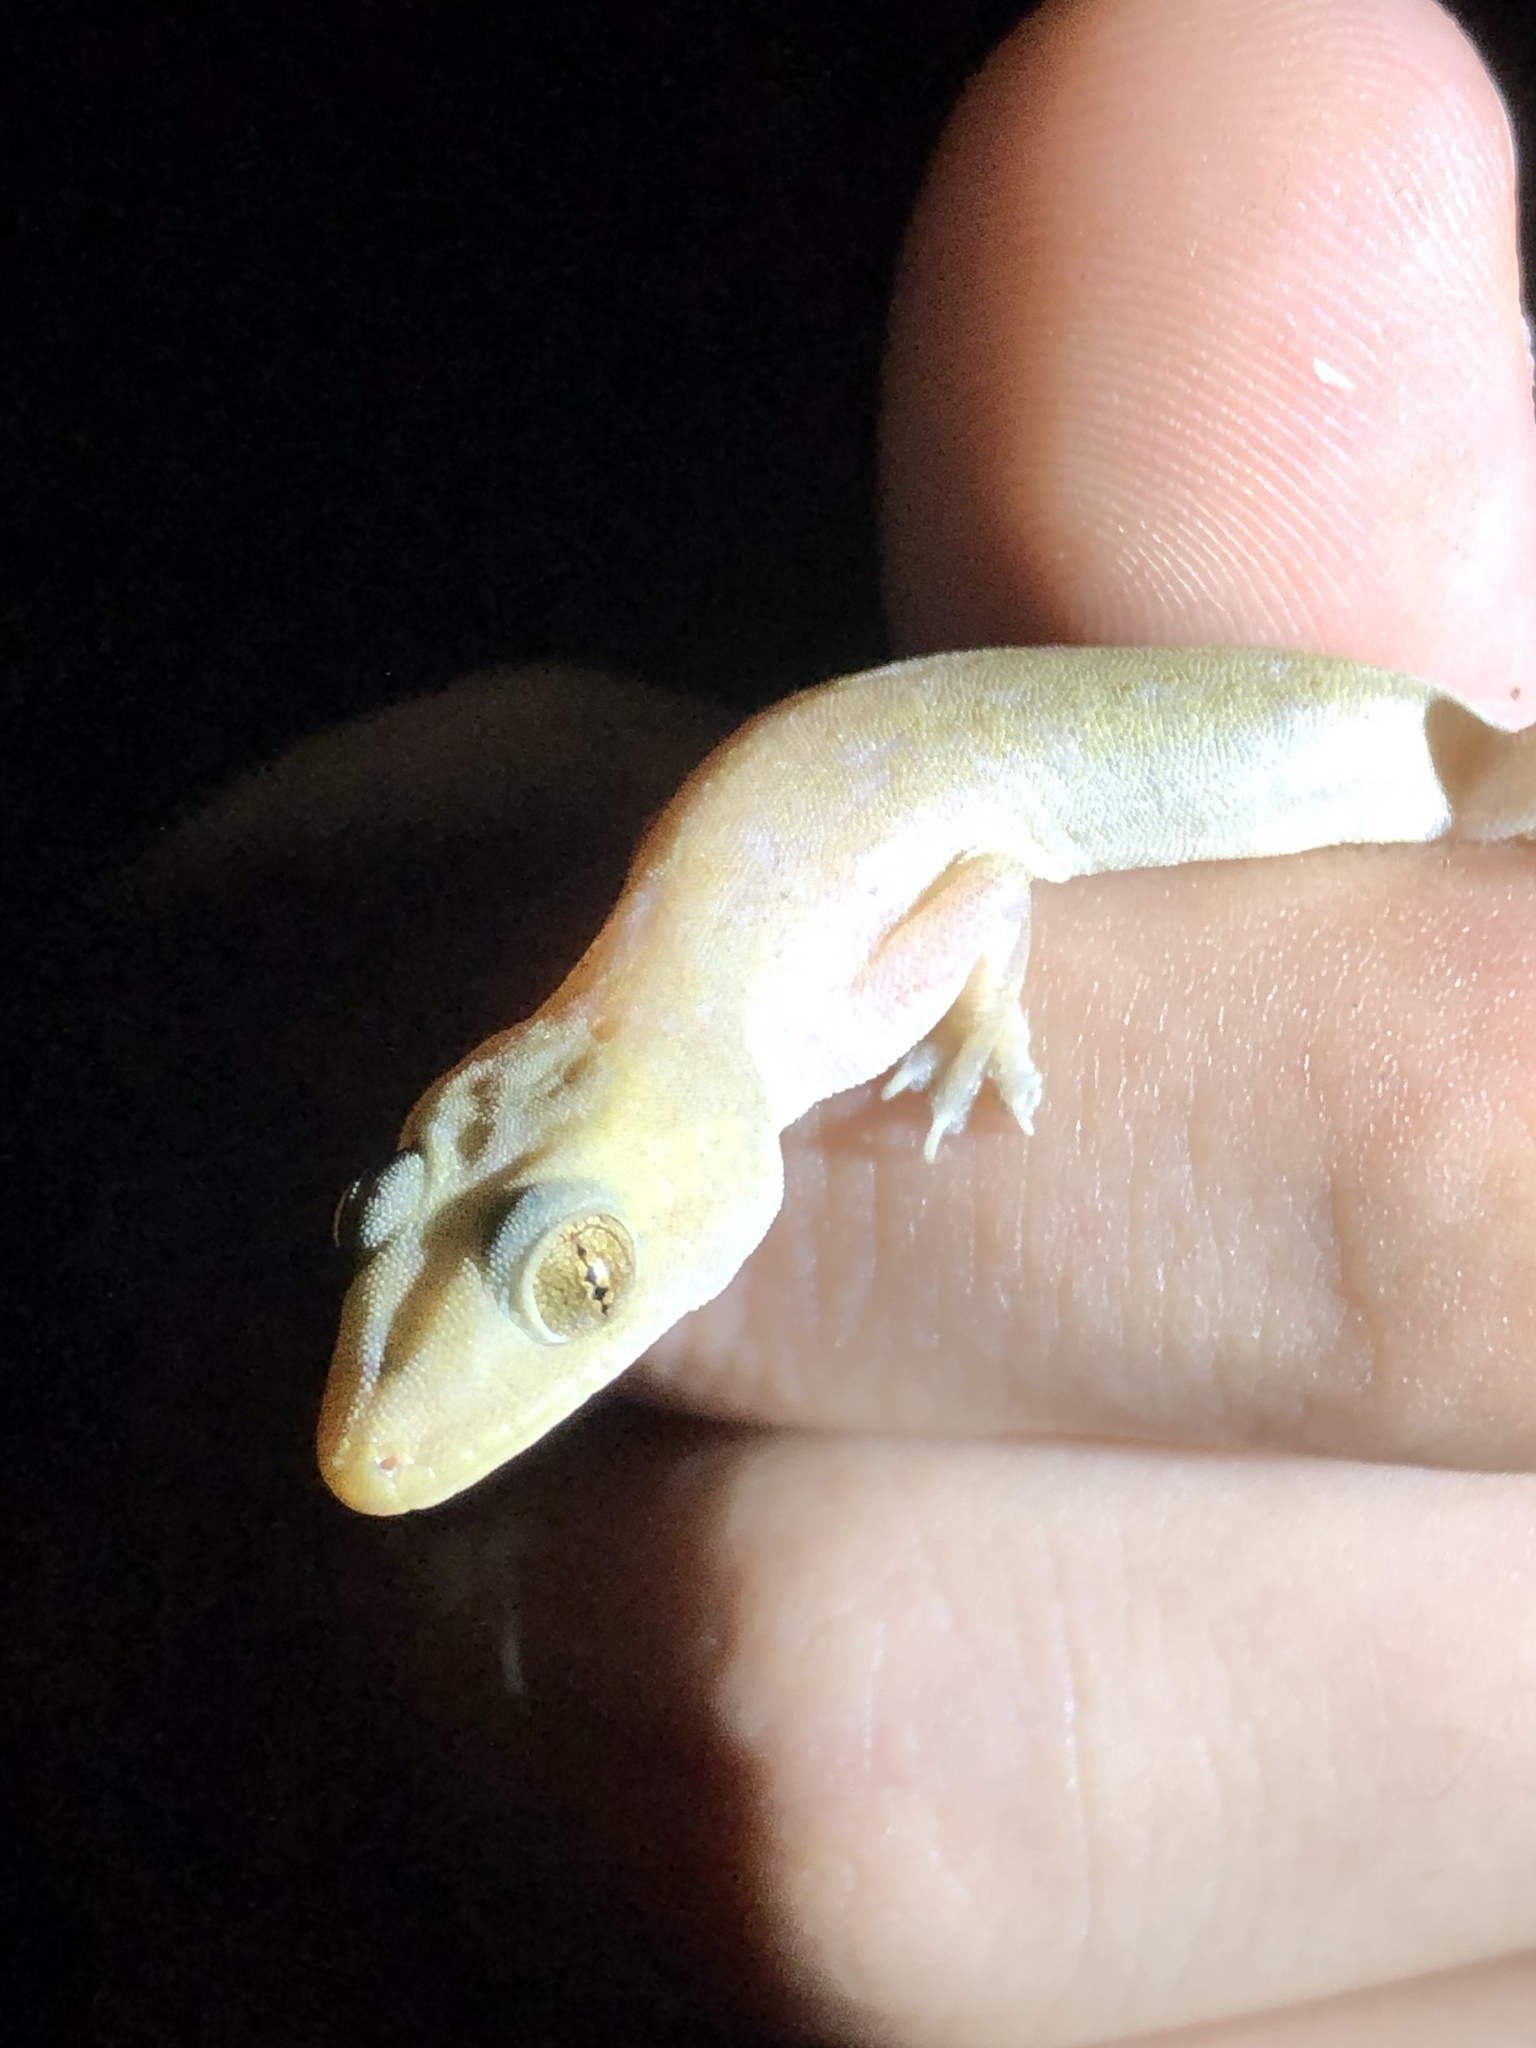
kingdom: Animalia
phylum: Chordata
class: Squamata
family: Gekkonidae
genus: Hemidactylus
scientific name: Hemidactylus frenatus
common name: Common house gecko
